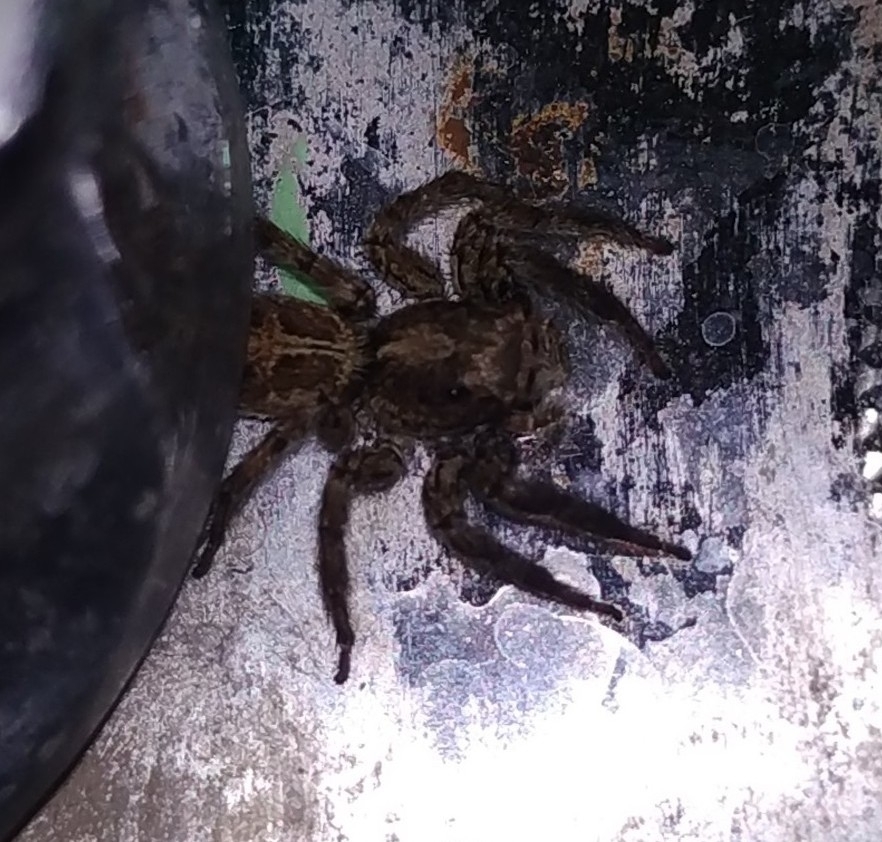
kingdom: Animalia
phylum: Arthropoda
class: Arachnida
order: Araneae
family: Salticidae
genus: Plexippus
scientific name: Plexippus paykulli
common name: Pantropical jumper
